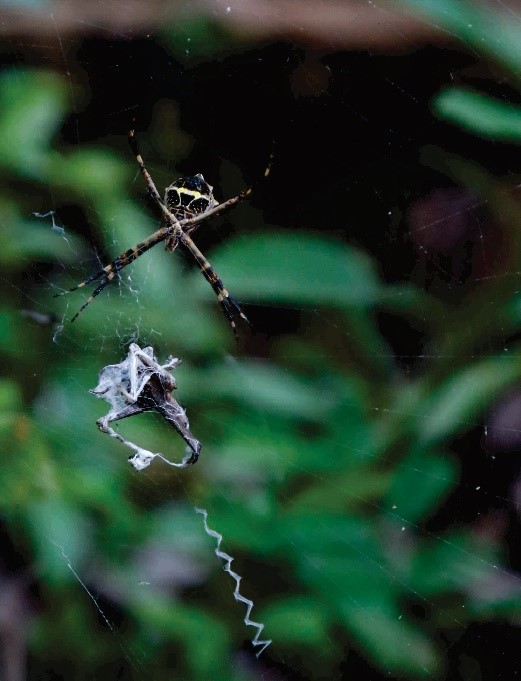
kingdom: Animalia
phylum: Arthropoda
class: Arachnida
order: Araneae
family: Araneidae
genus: Argiope
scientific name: Argiope argentata
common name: Orb weavers
